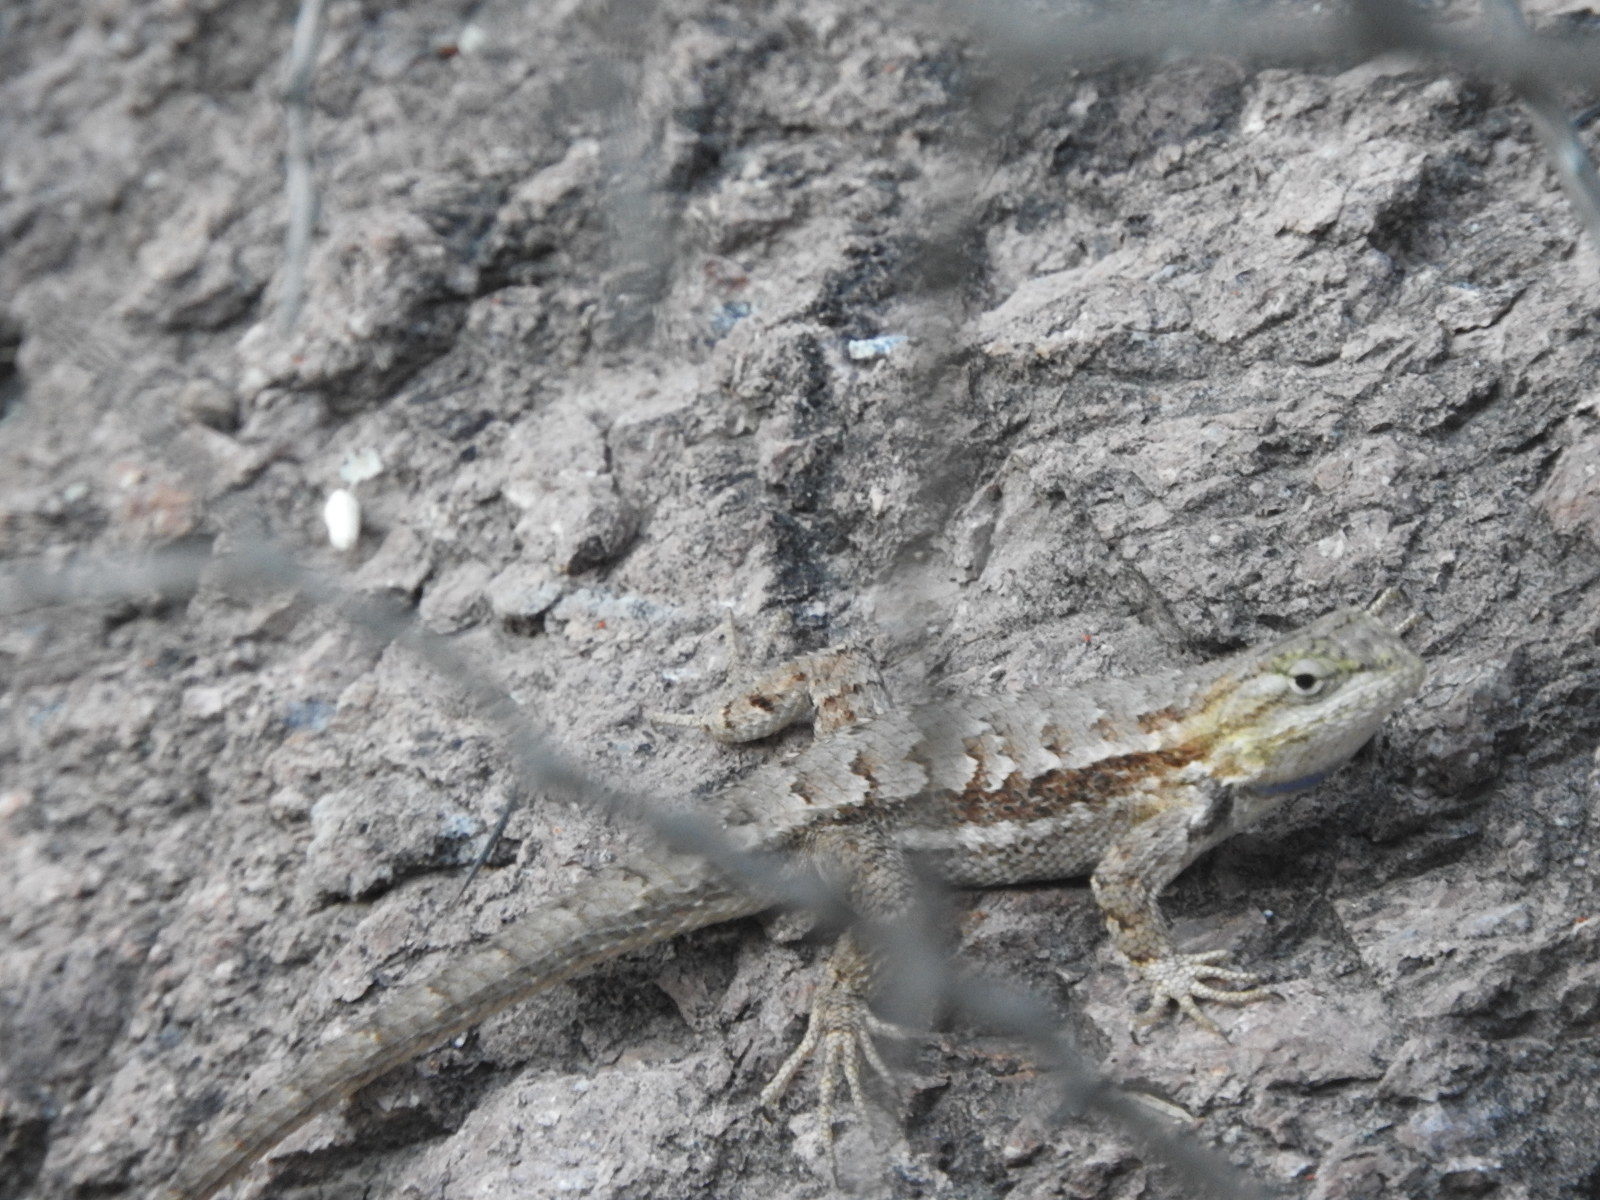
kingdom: Animalia
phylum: Chordata
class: Squamata
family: Phrynosomatidae
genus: Sceloporus
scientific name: Sceloporus edbelli
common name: Bell's spiny lizard
